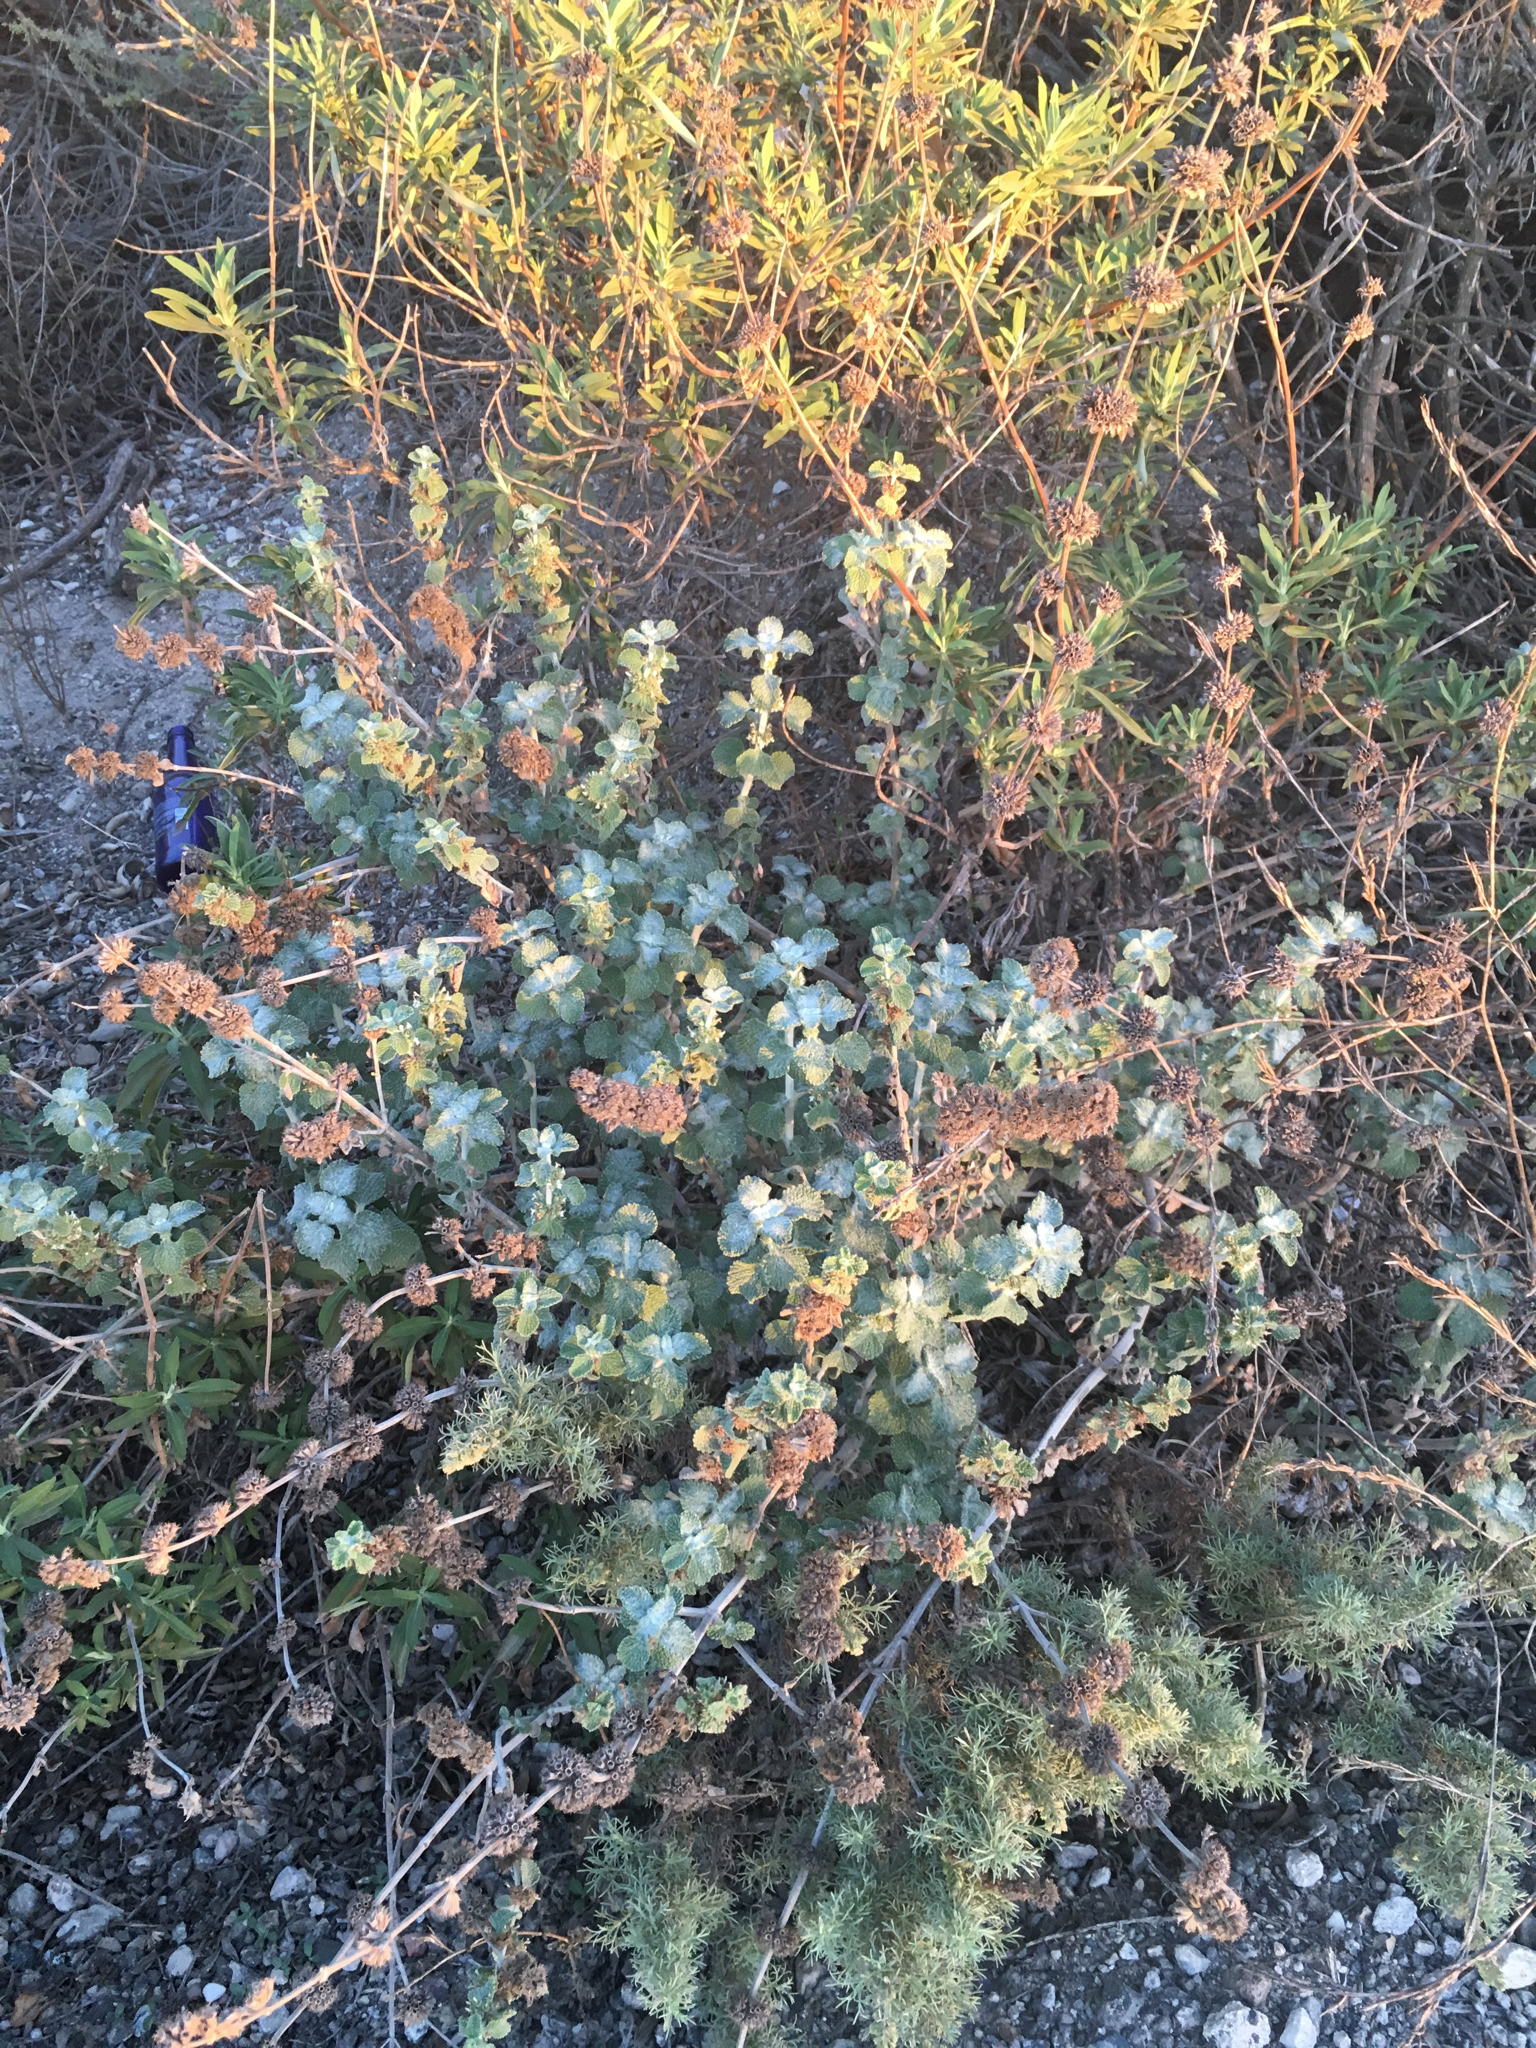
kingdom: Plantae
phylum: Tracheophyta
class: Magnoliopsida
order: Lamiales
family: Lamiaceae
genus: Marrubium
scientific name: Marrubium vulgare
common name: Horehound
